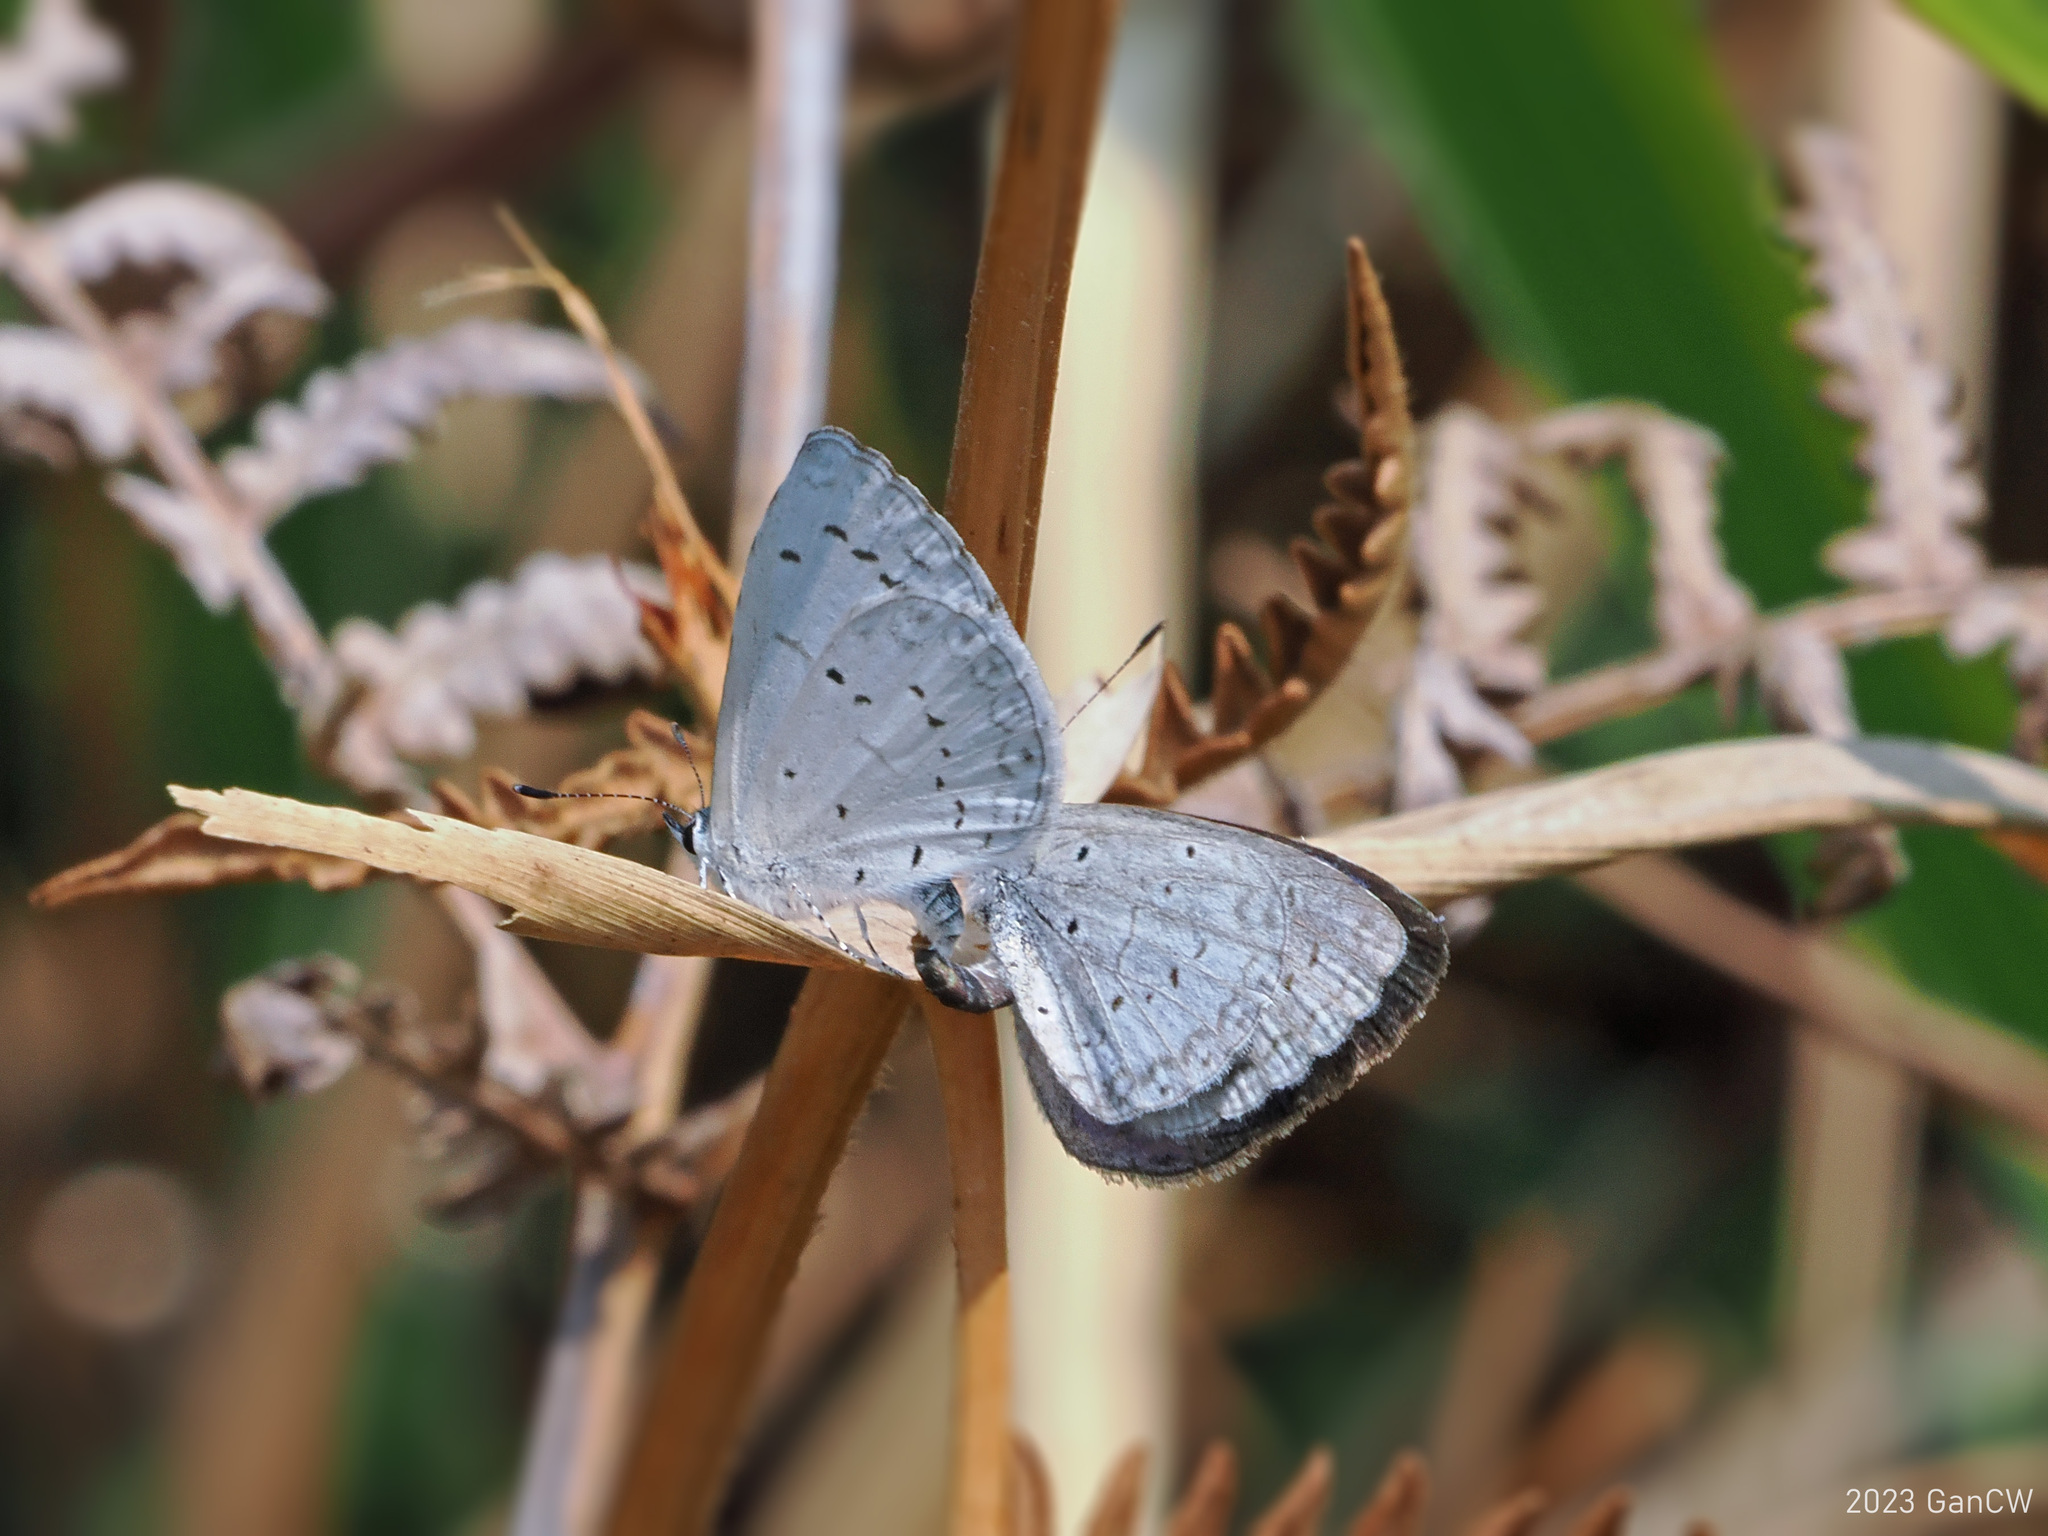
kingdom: Animalia
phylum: Arthropoda
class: Insecta
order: Lepidoptera
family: Lycaenidae
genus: Celastrina
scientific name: Celastrina argiolus
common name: Holly blue
